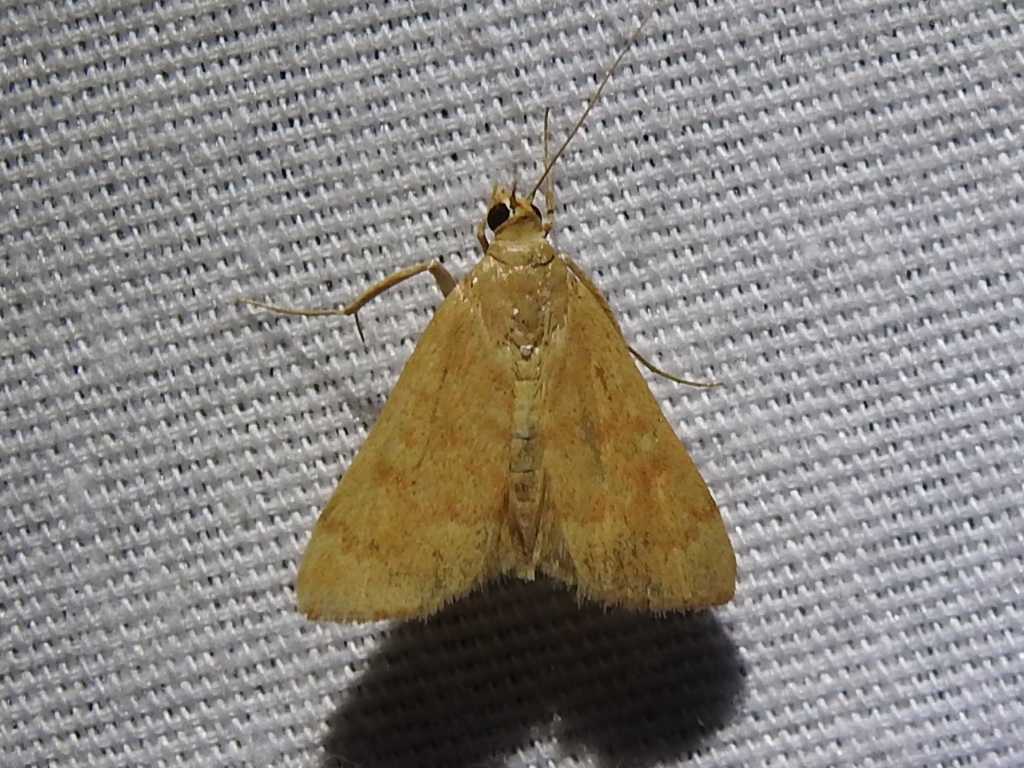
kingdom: Animalia
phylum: Arthropoda
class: Insecta
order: Lepidoptera
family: Crambidae
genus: Achyra
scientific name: Achyra rantalis
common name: Garden webworm
